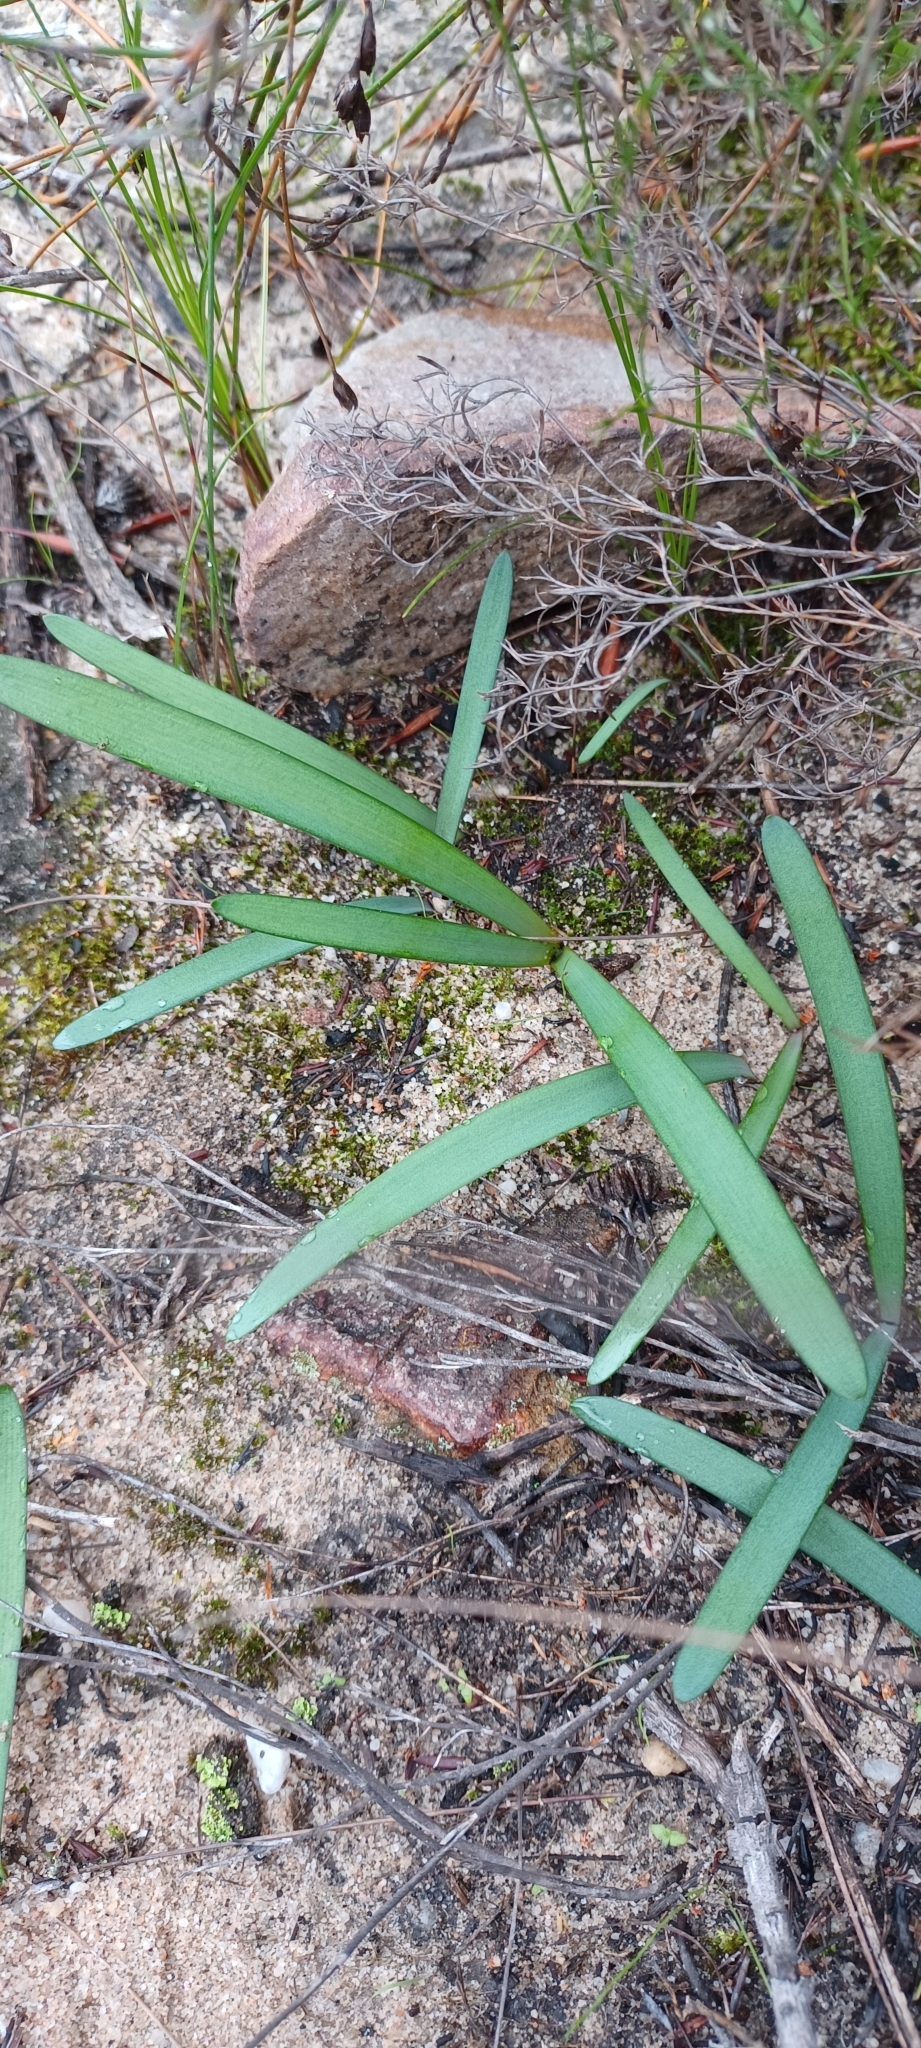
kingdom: Plantae
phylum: Tracheophyta
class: Liliopsida
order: Asparagales
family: Amaryllidaceae
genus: Nerine
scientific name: Nerine humilis
